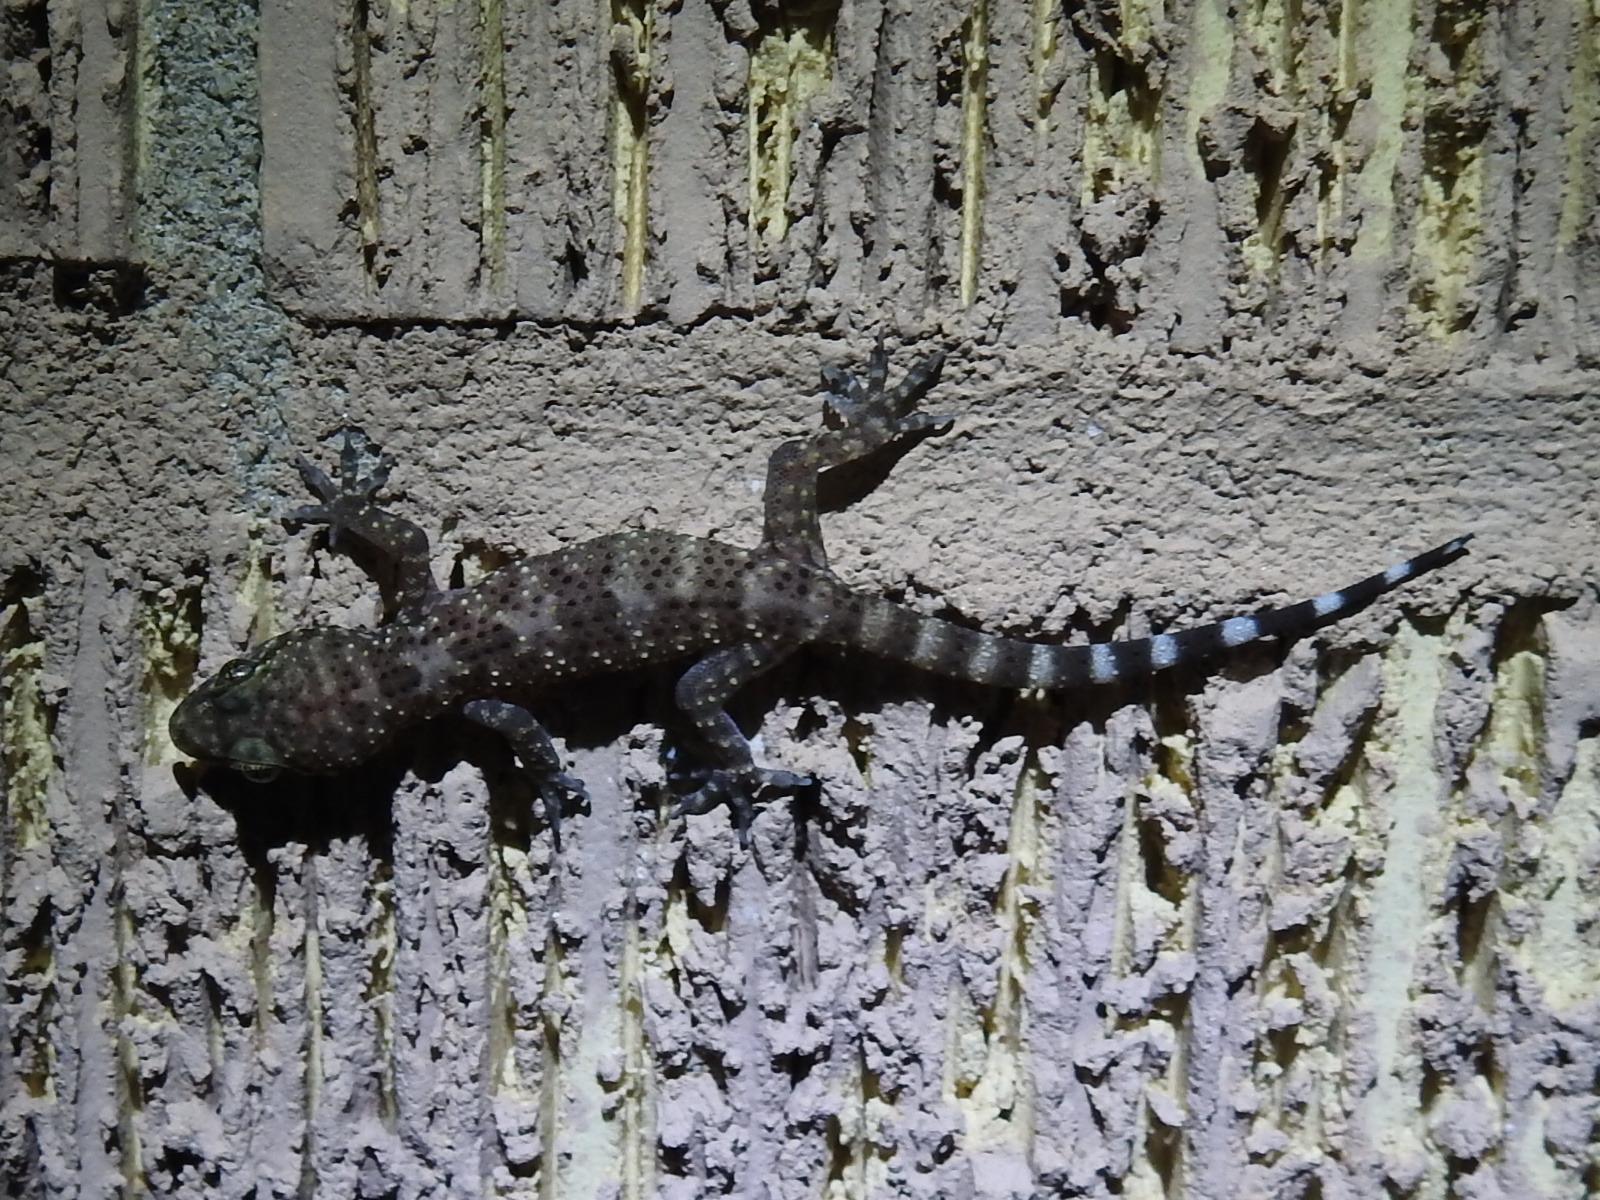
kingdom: Animalia
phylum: Chordata
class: Squamata
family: Gekkonidae
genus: Hemidactylus
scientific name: Hemidactylus turcicus
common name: Turkish gecko
